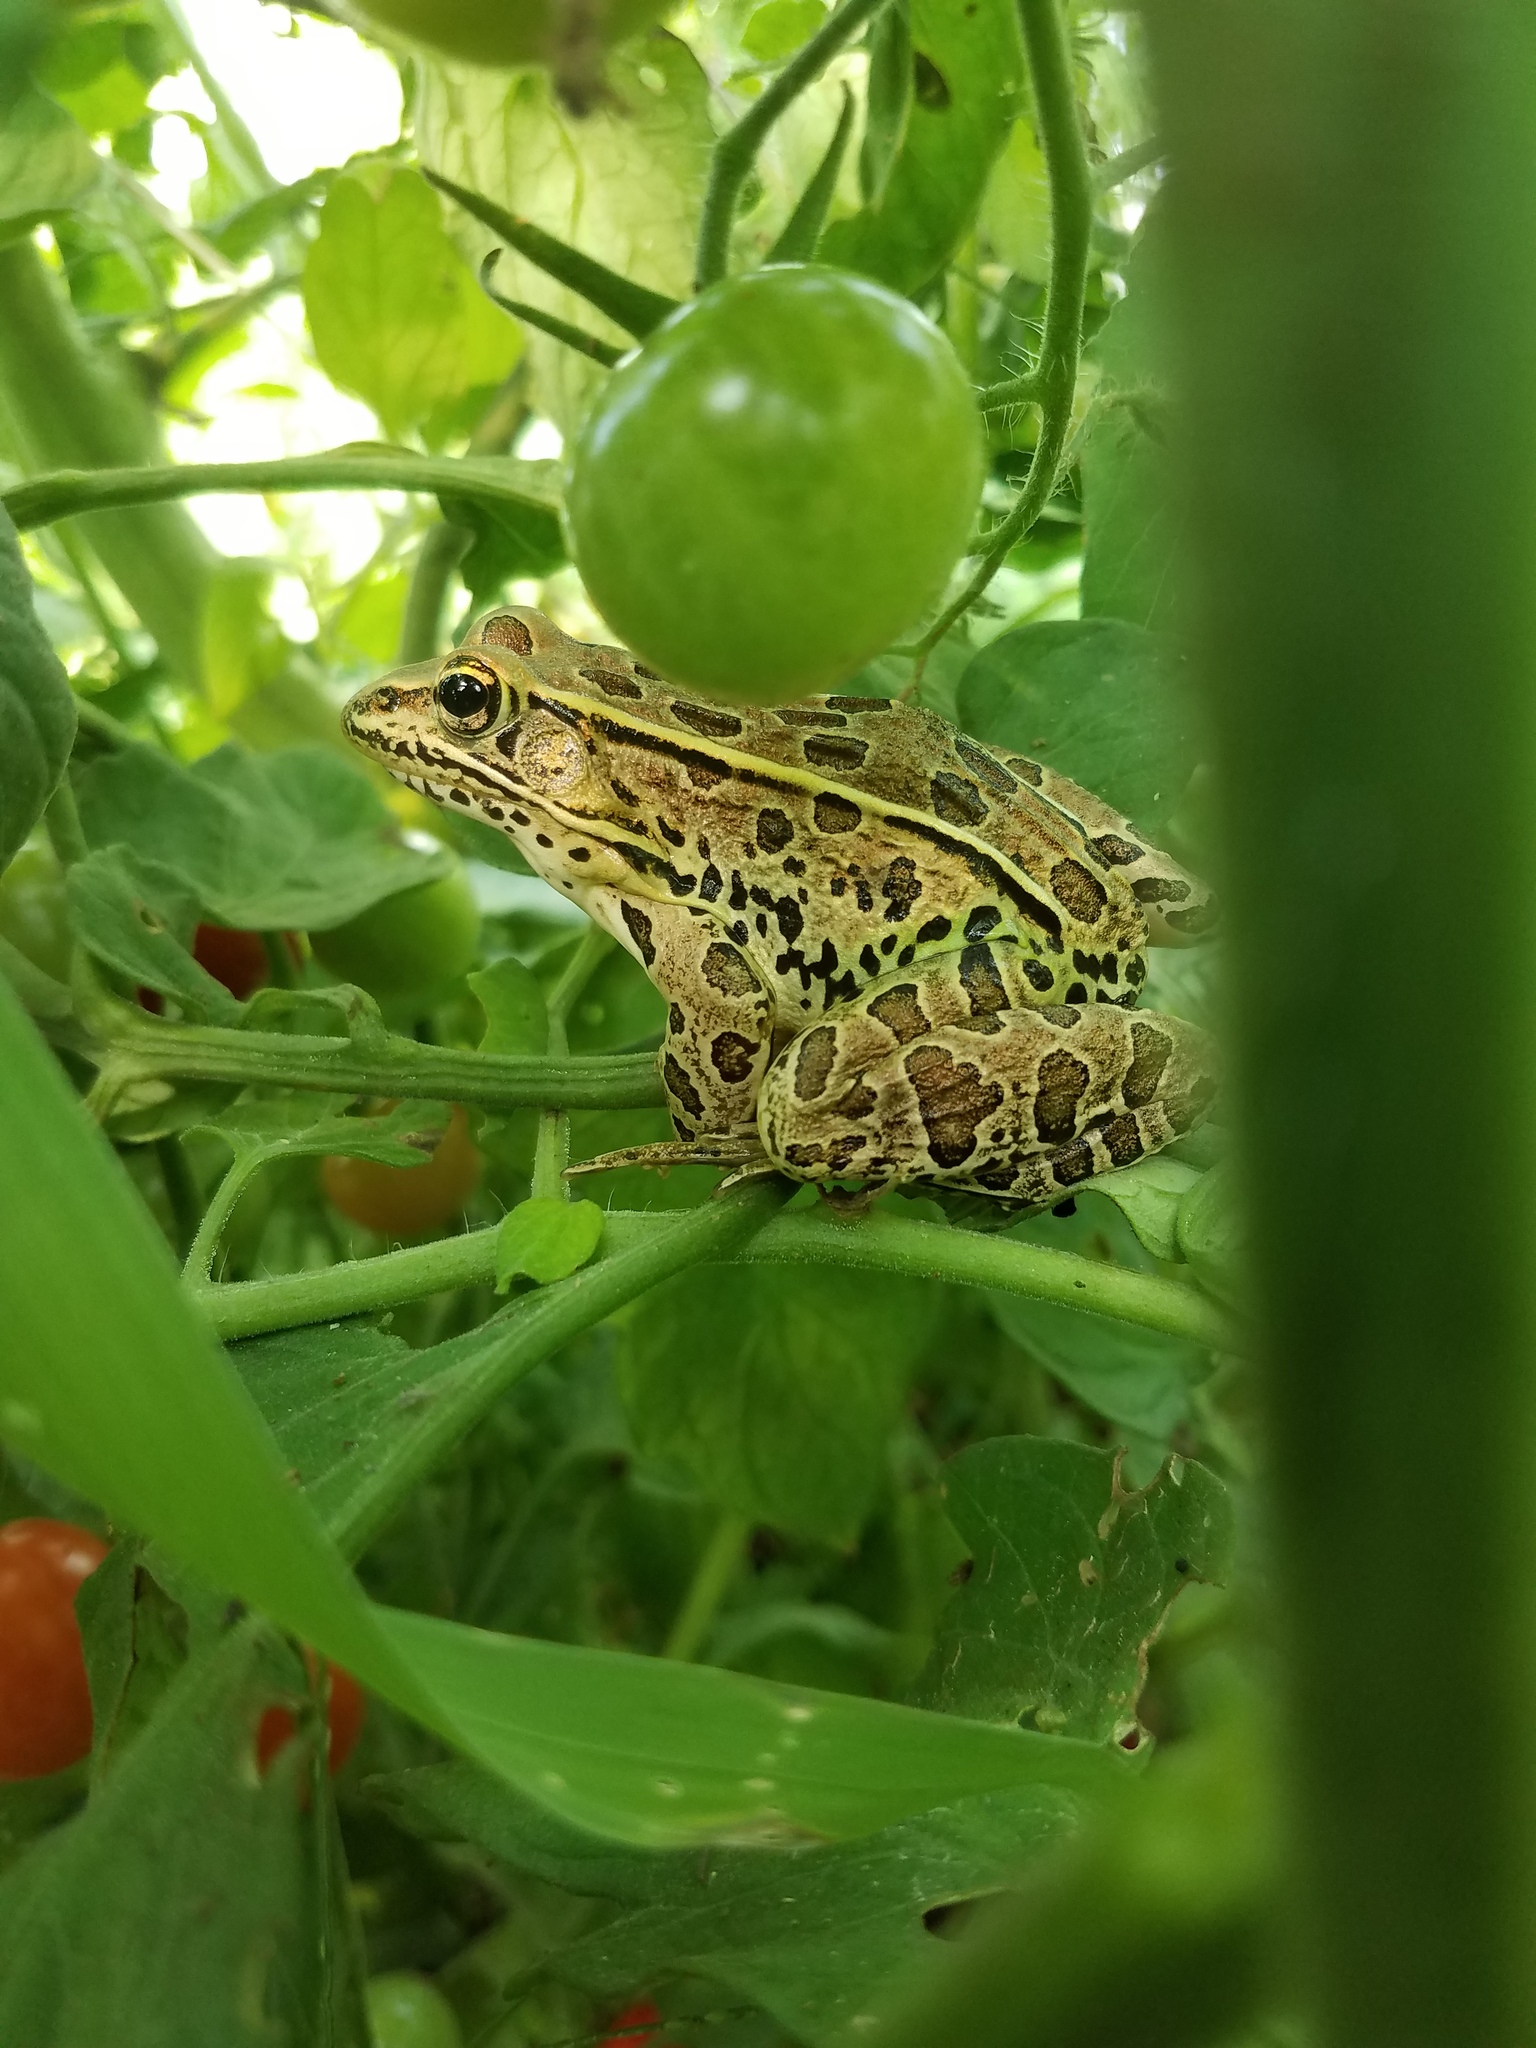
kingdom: Animalia
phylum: Chordata
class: Amphibia
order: Anura
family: Ranidae
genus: Lithobates
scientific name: Lithobates pipiens
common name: Northern leopard frog
